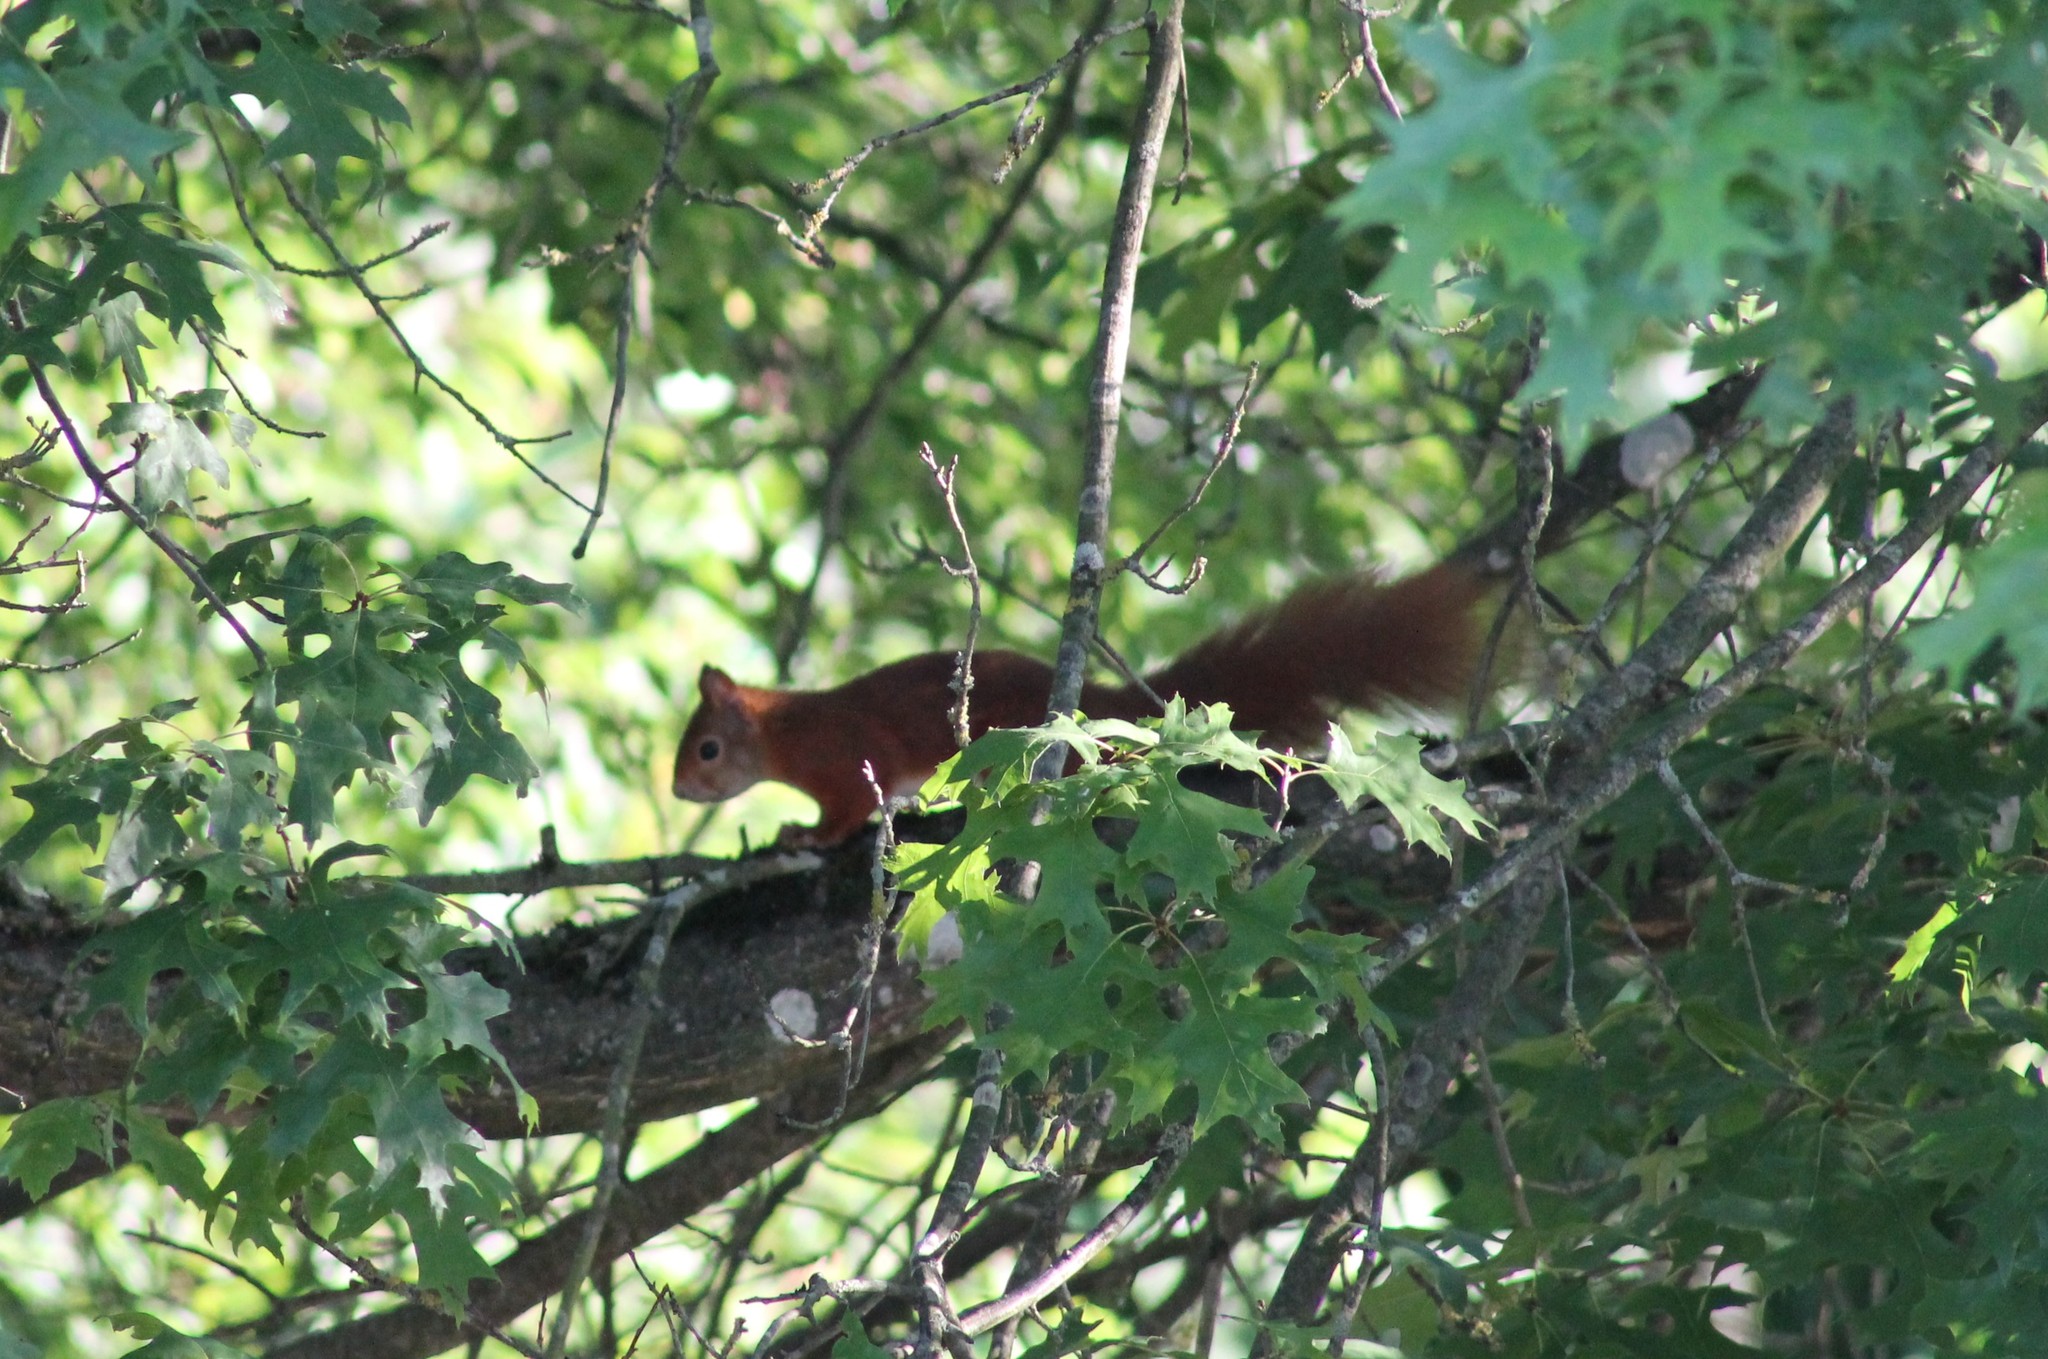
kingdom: Animalia
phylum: Chordata
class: Mammalia
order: Rodentia
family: Sciuridae
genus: Sciurus
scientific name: Sciurus vulgaris
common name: Eurasian red squirrel
